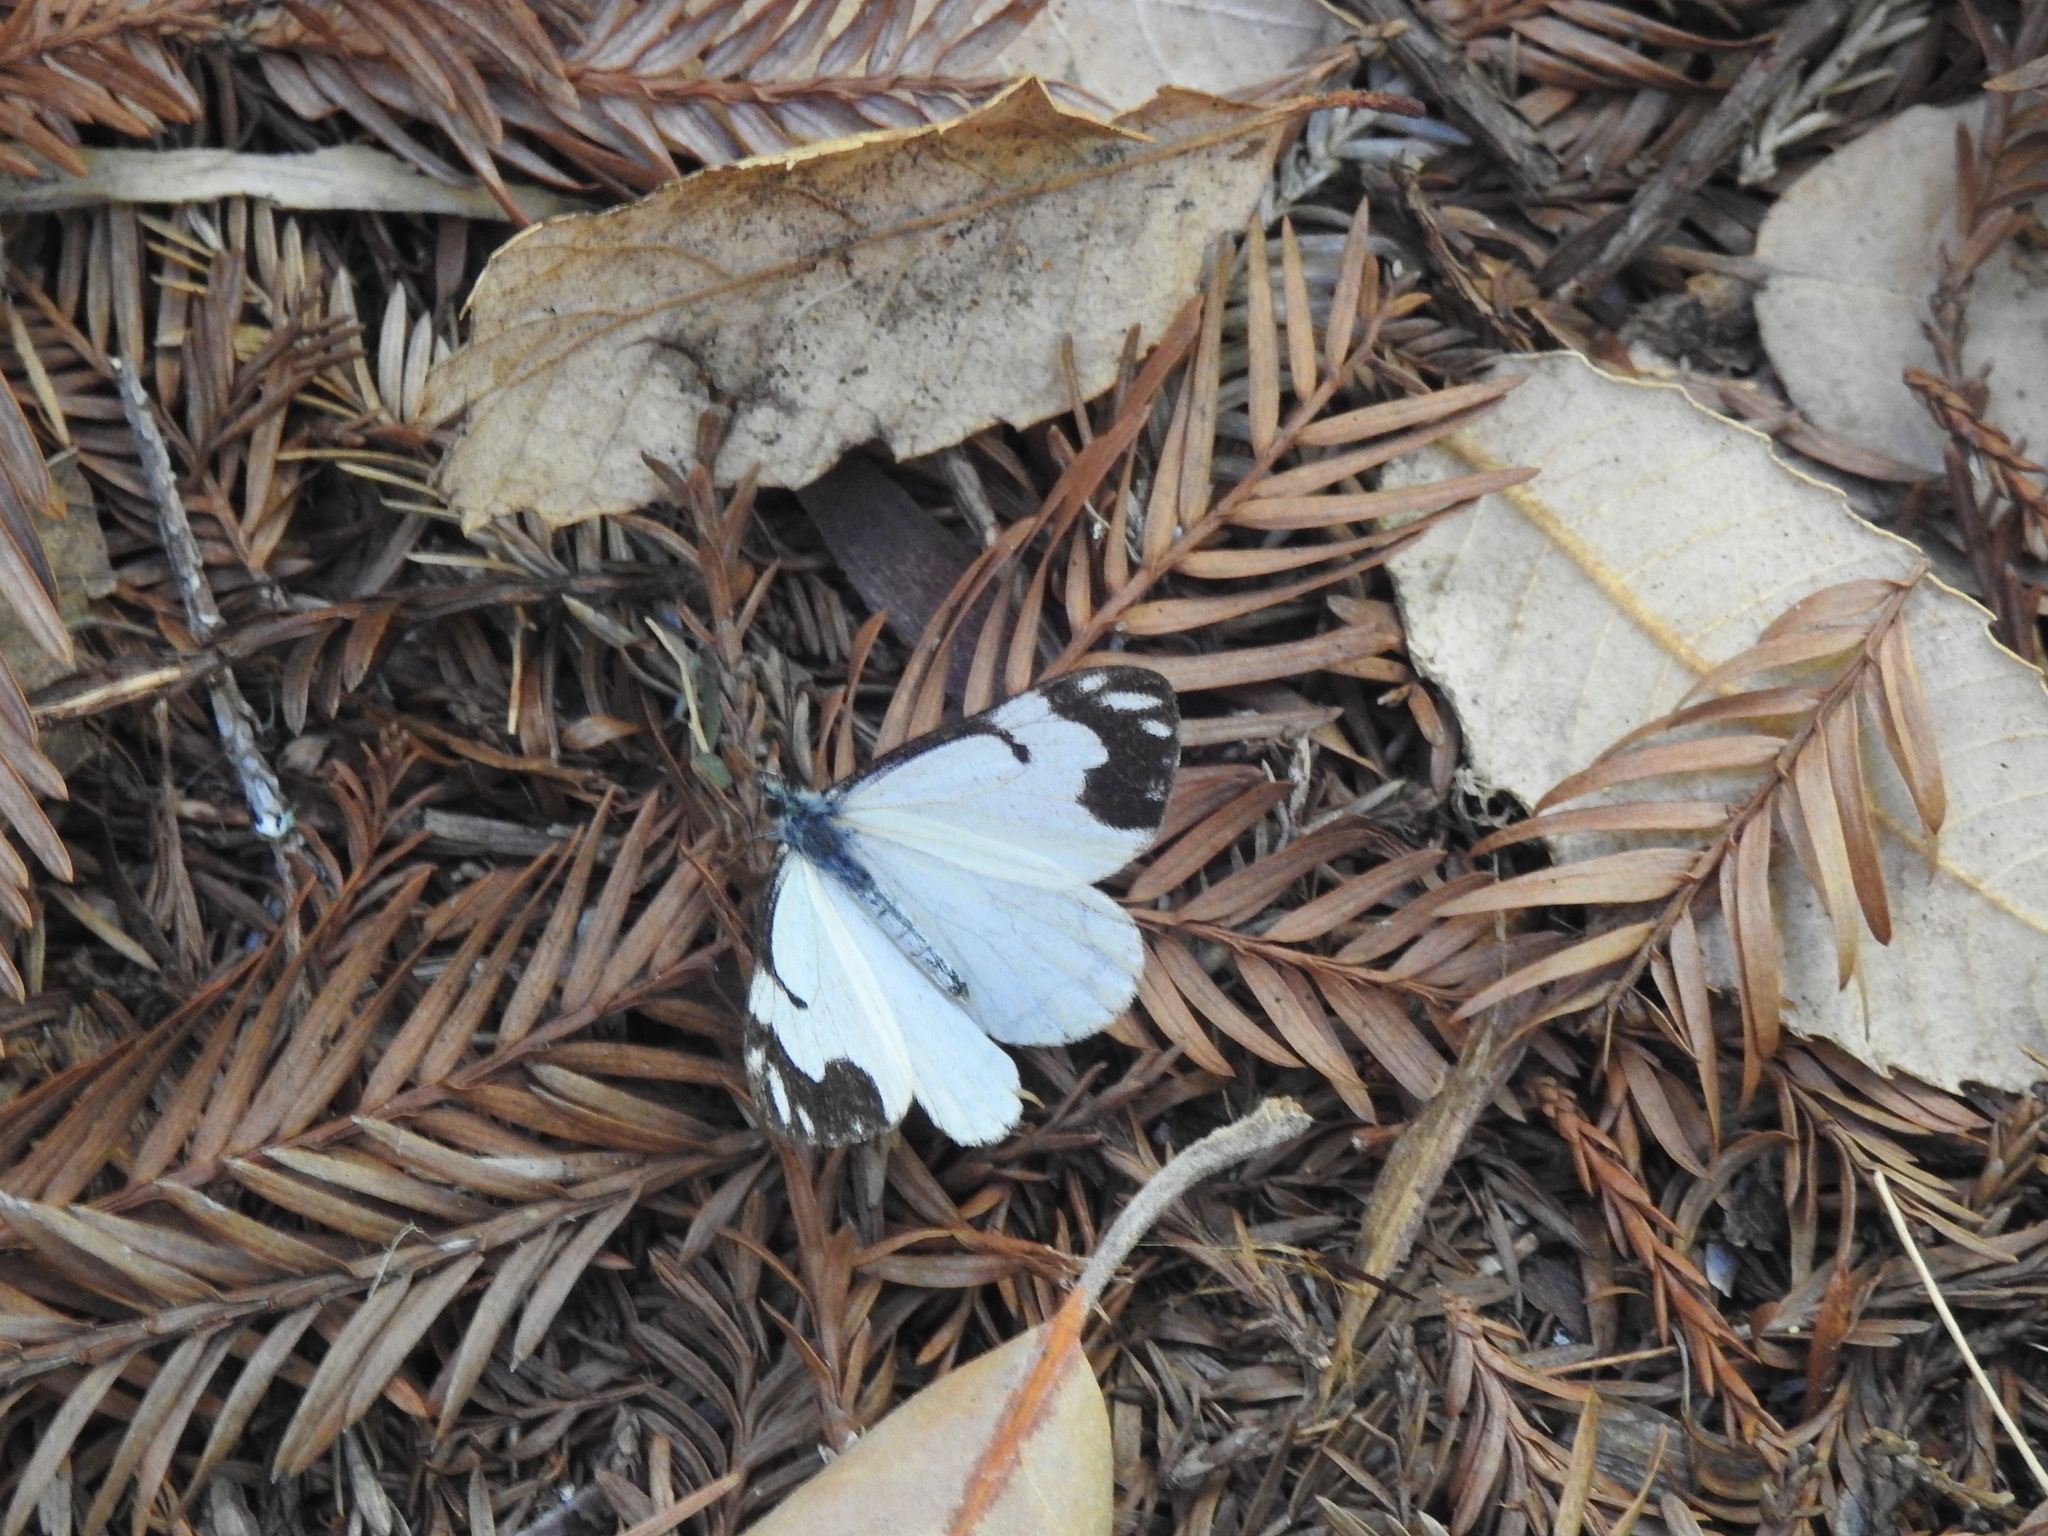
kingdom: Animalia
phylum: Arthropoda
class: Insecta
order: Lepidoptera
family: Pieridae
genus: Neophasia
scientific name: Neophasia menapia
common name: Pine white
